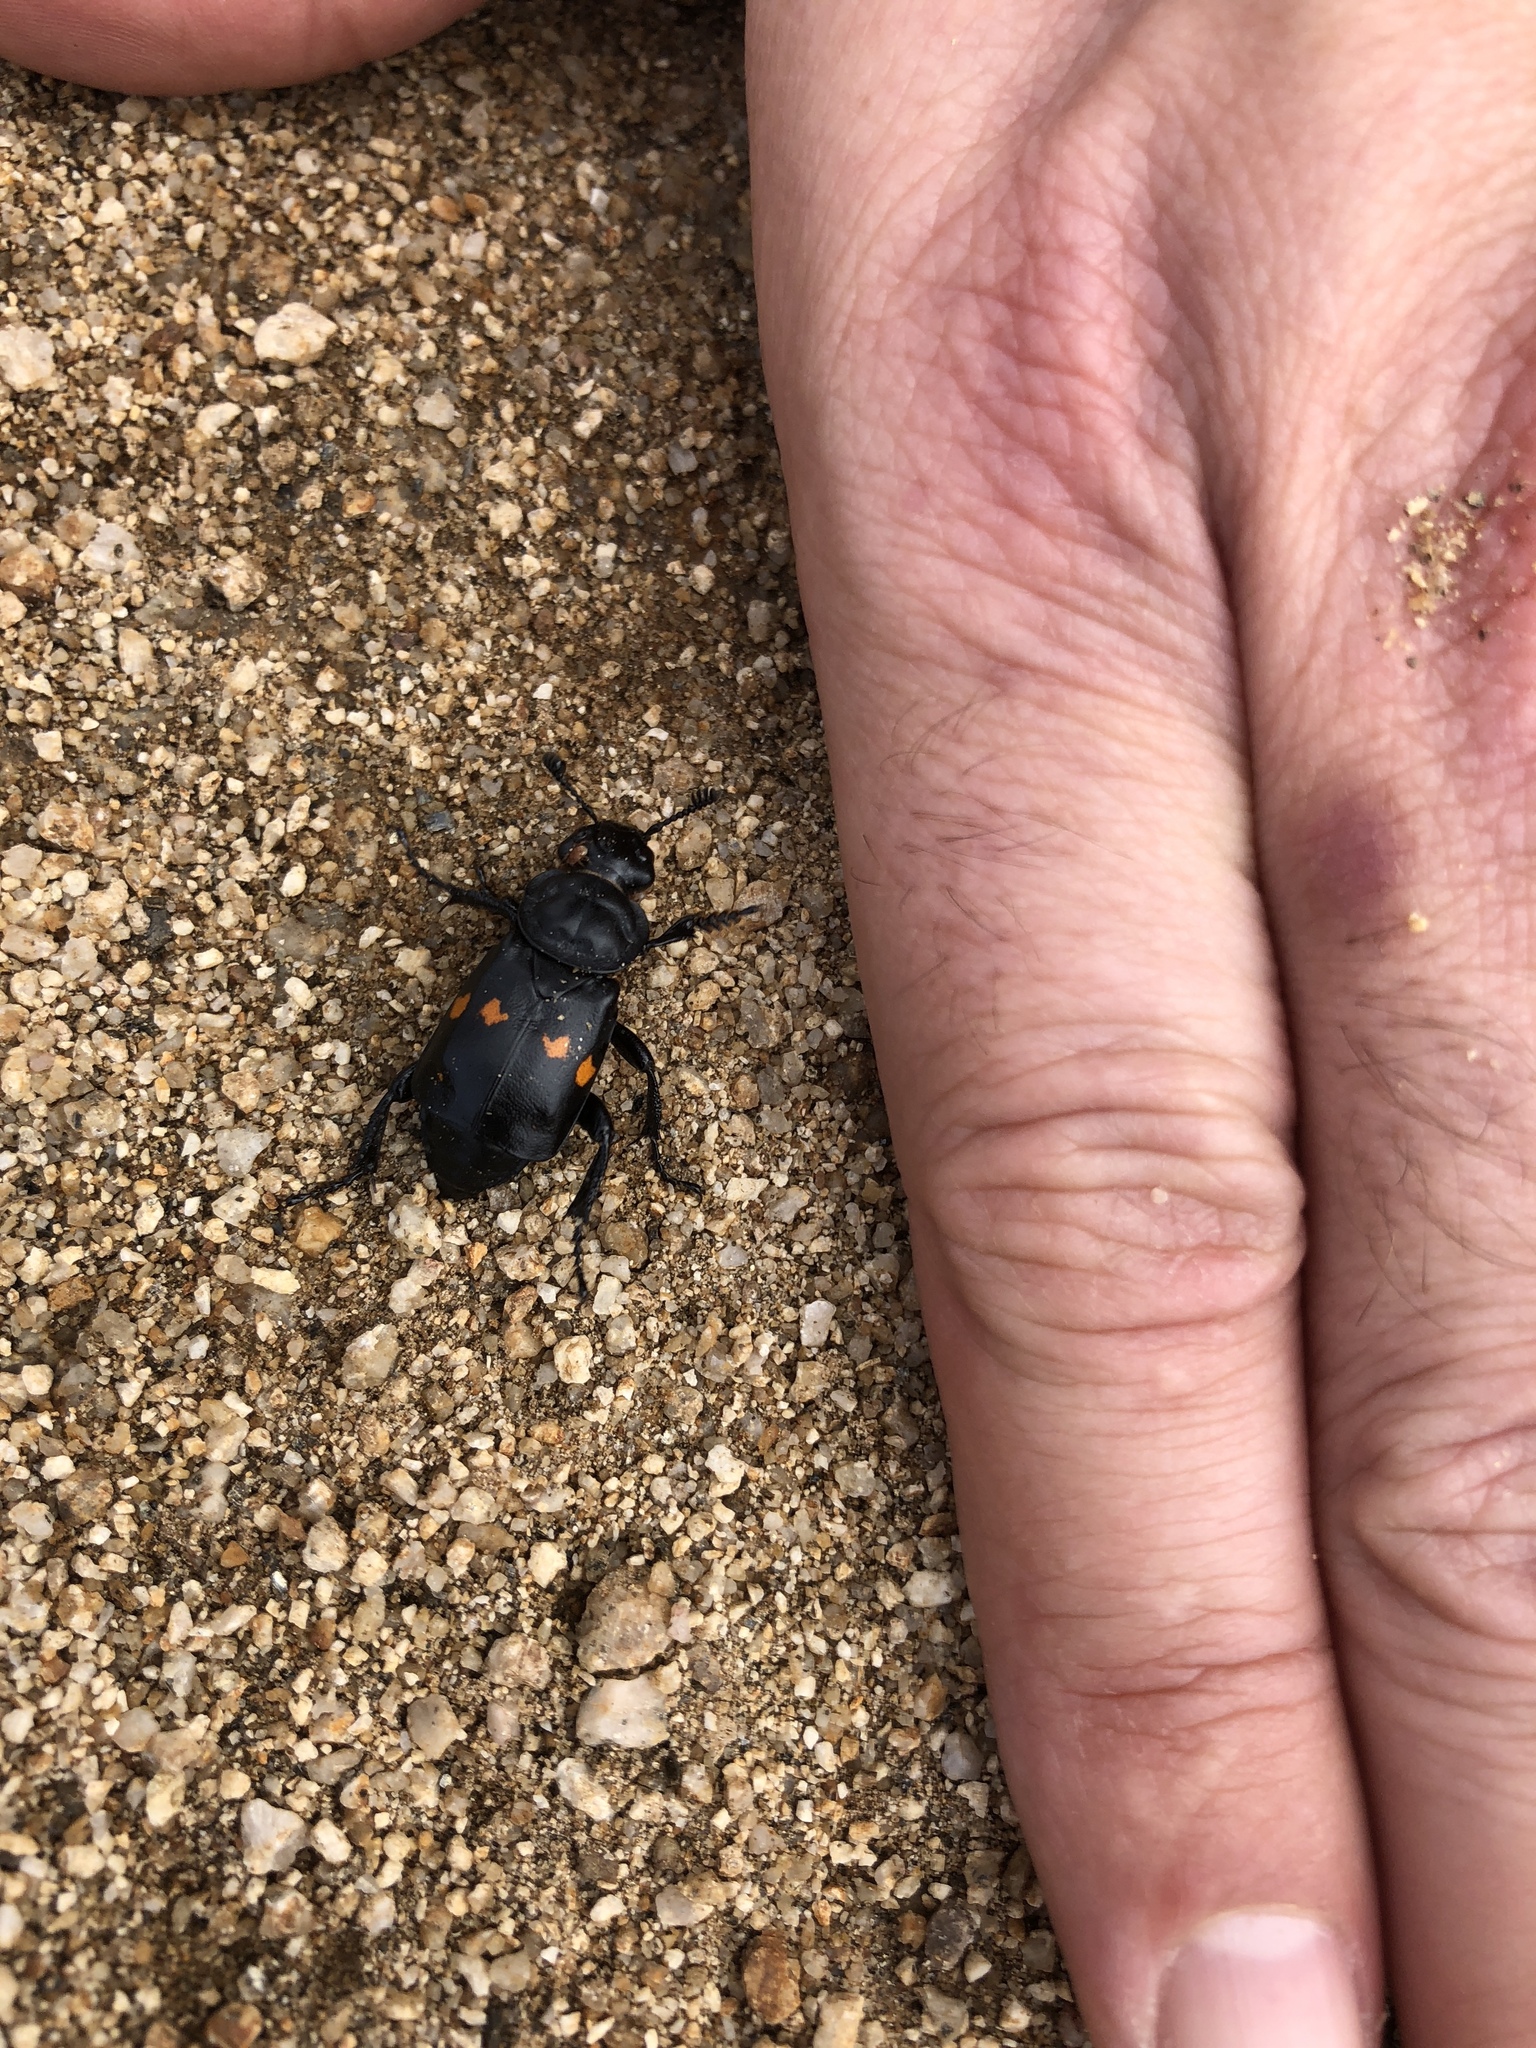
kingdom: Animalia
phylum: Arthropoda
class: Insecta
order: Coleoptera
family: Staphylinidae
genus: Nicrophorus
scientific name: Nicrophorus defodiens
